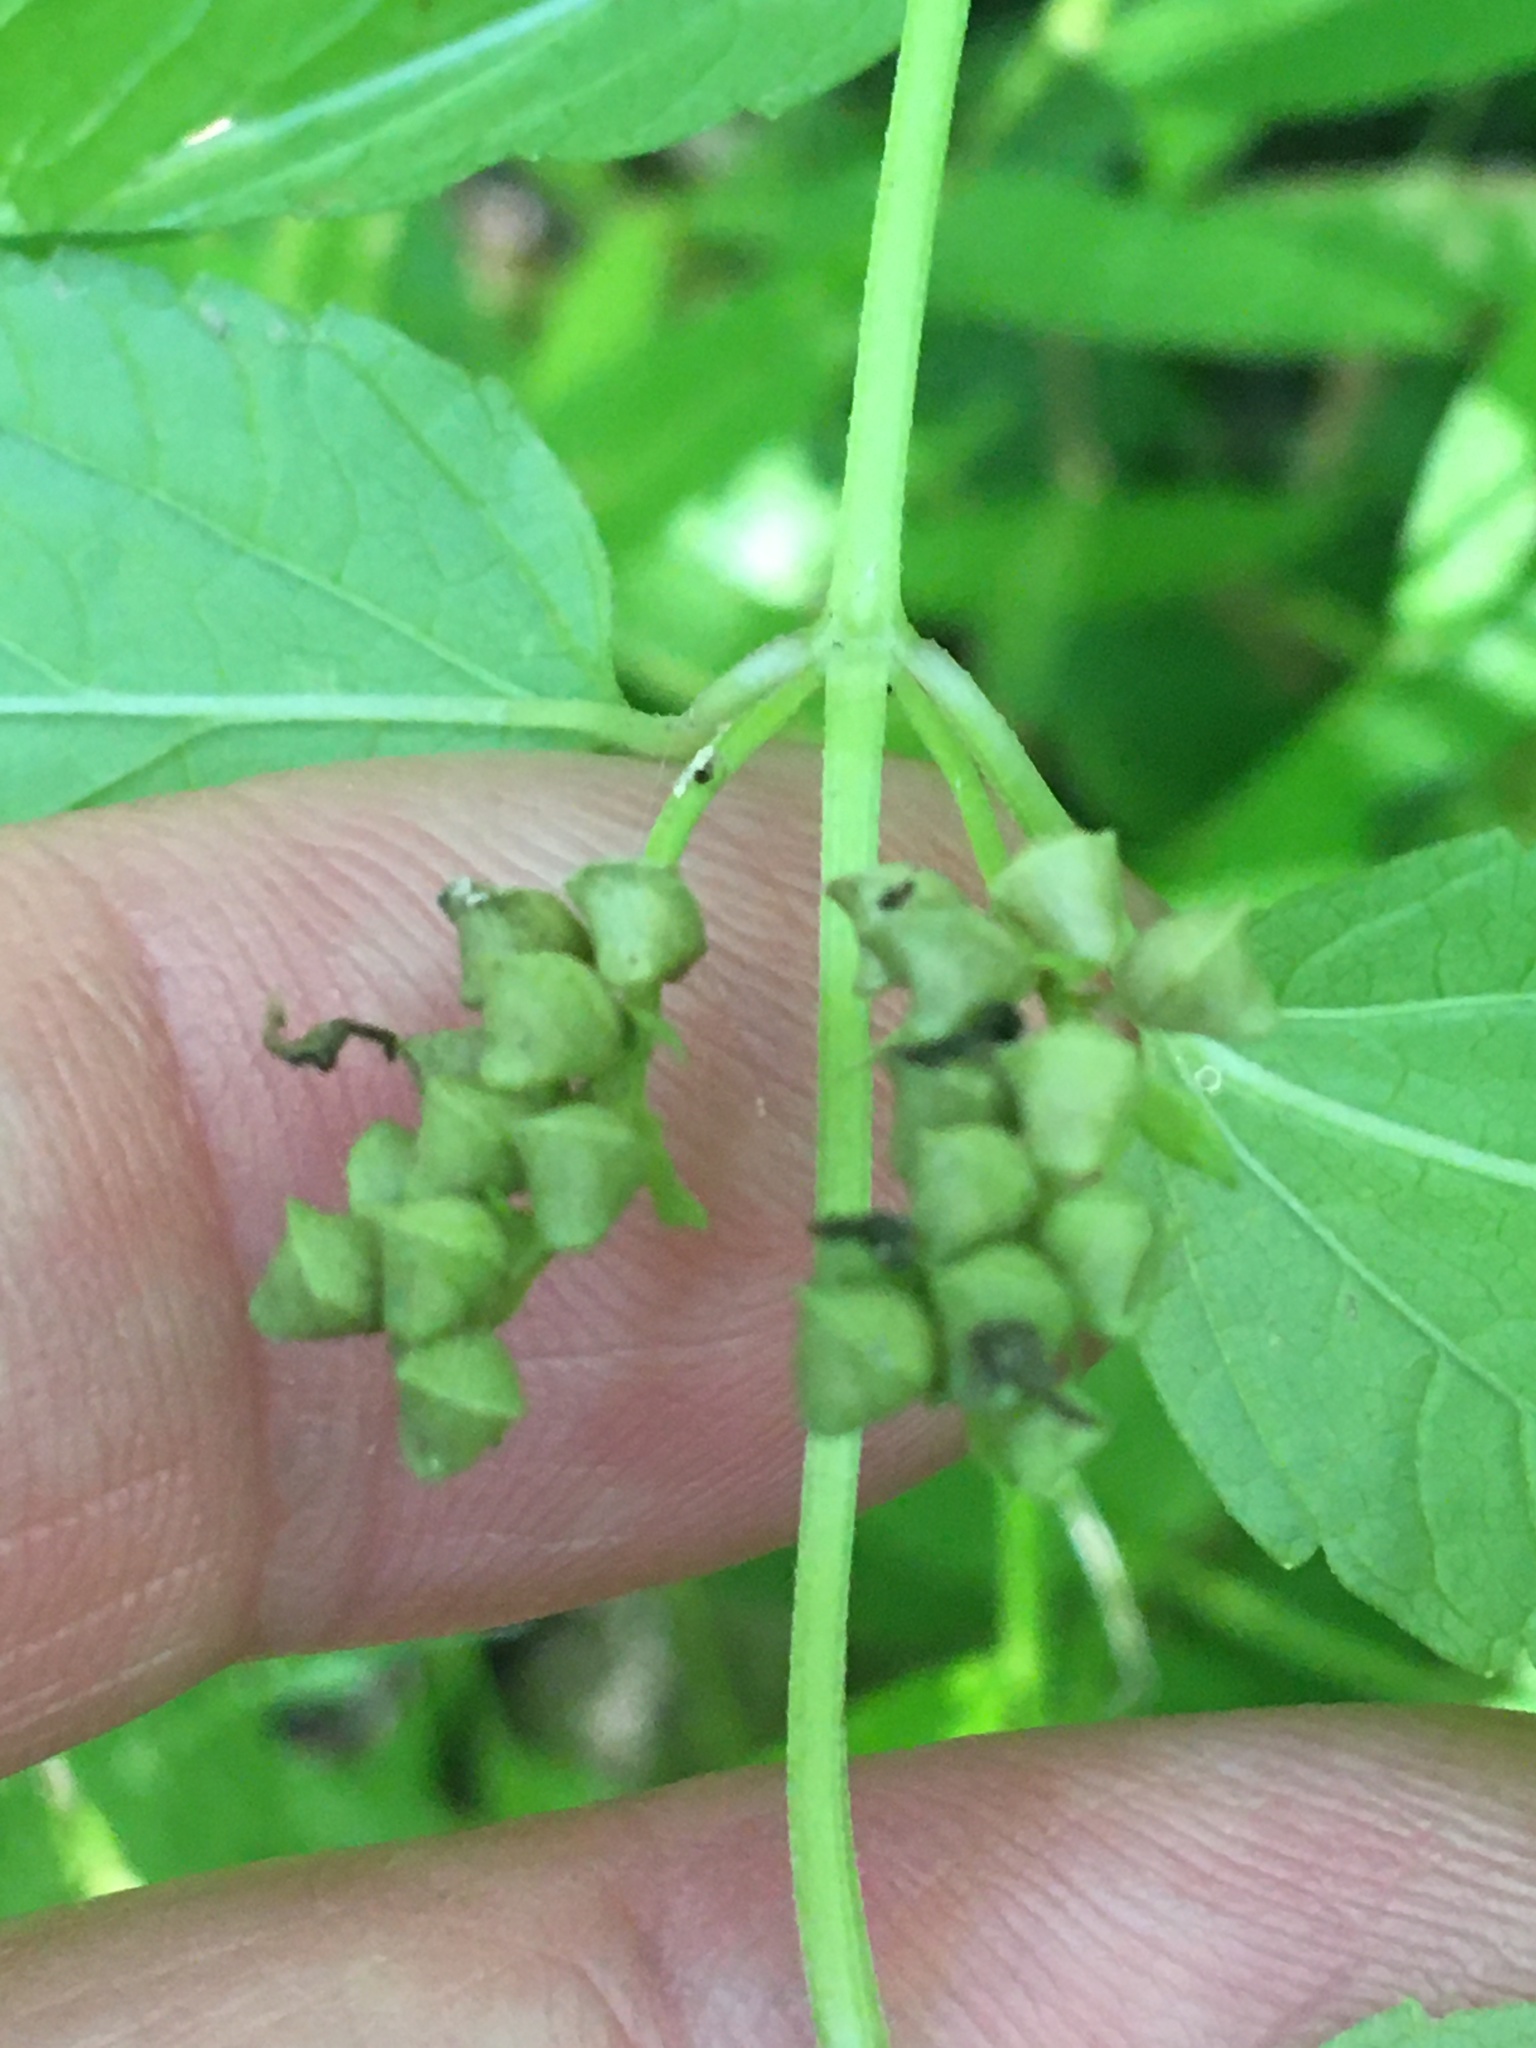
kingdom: Plantae
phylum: Tracheophyta
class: Magnoliopsida
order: Lamiales
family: Lamiaceae
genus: Scutellaria
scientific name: Scutellaria lateriflora
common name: Blue skullcap
